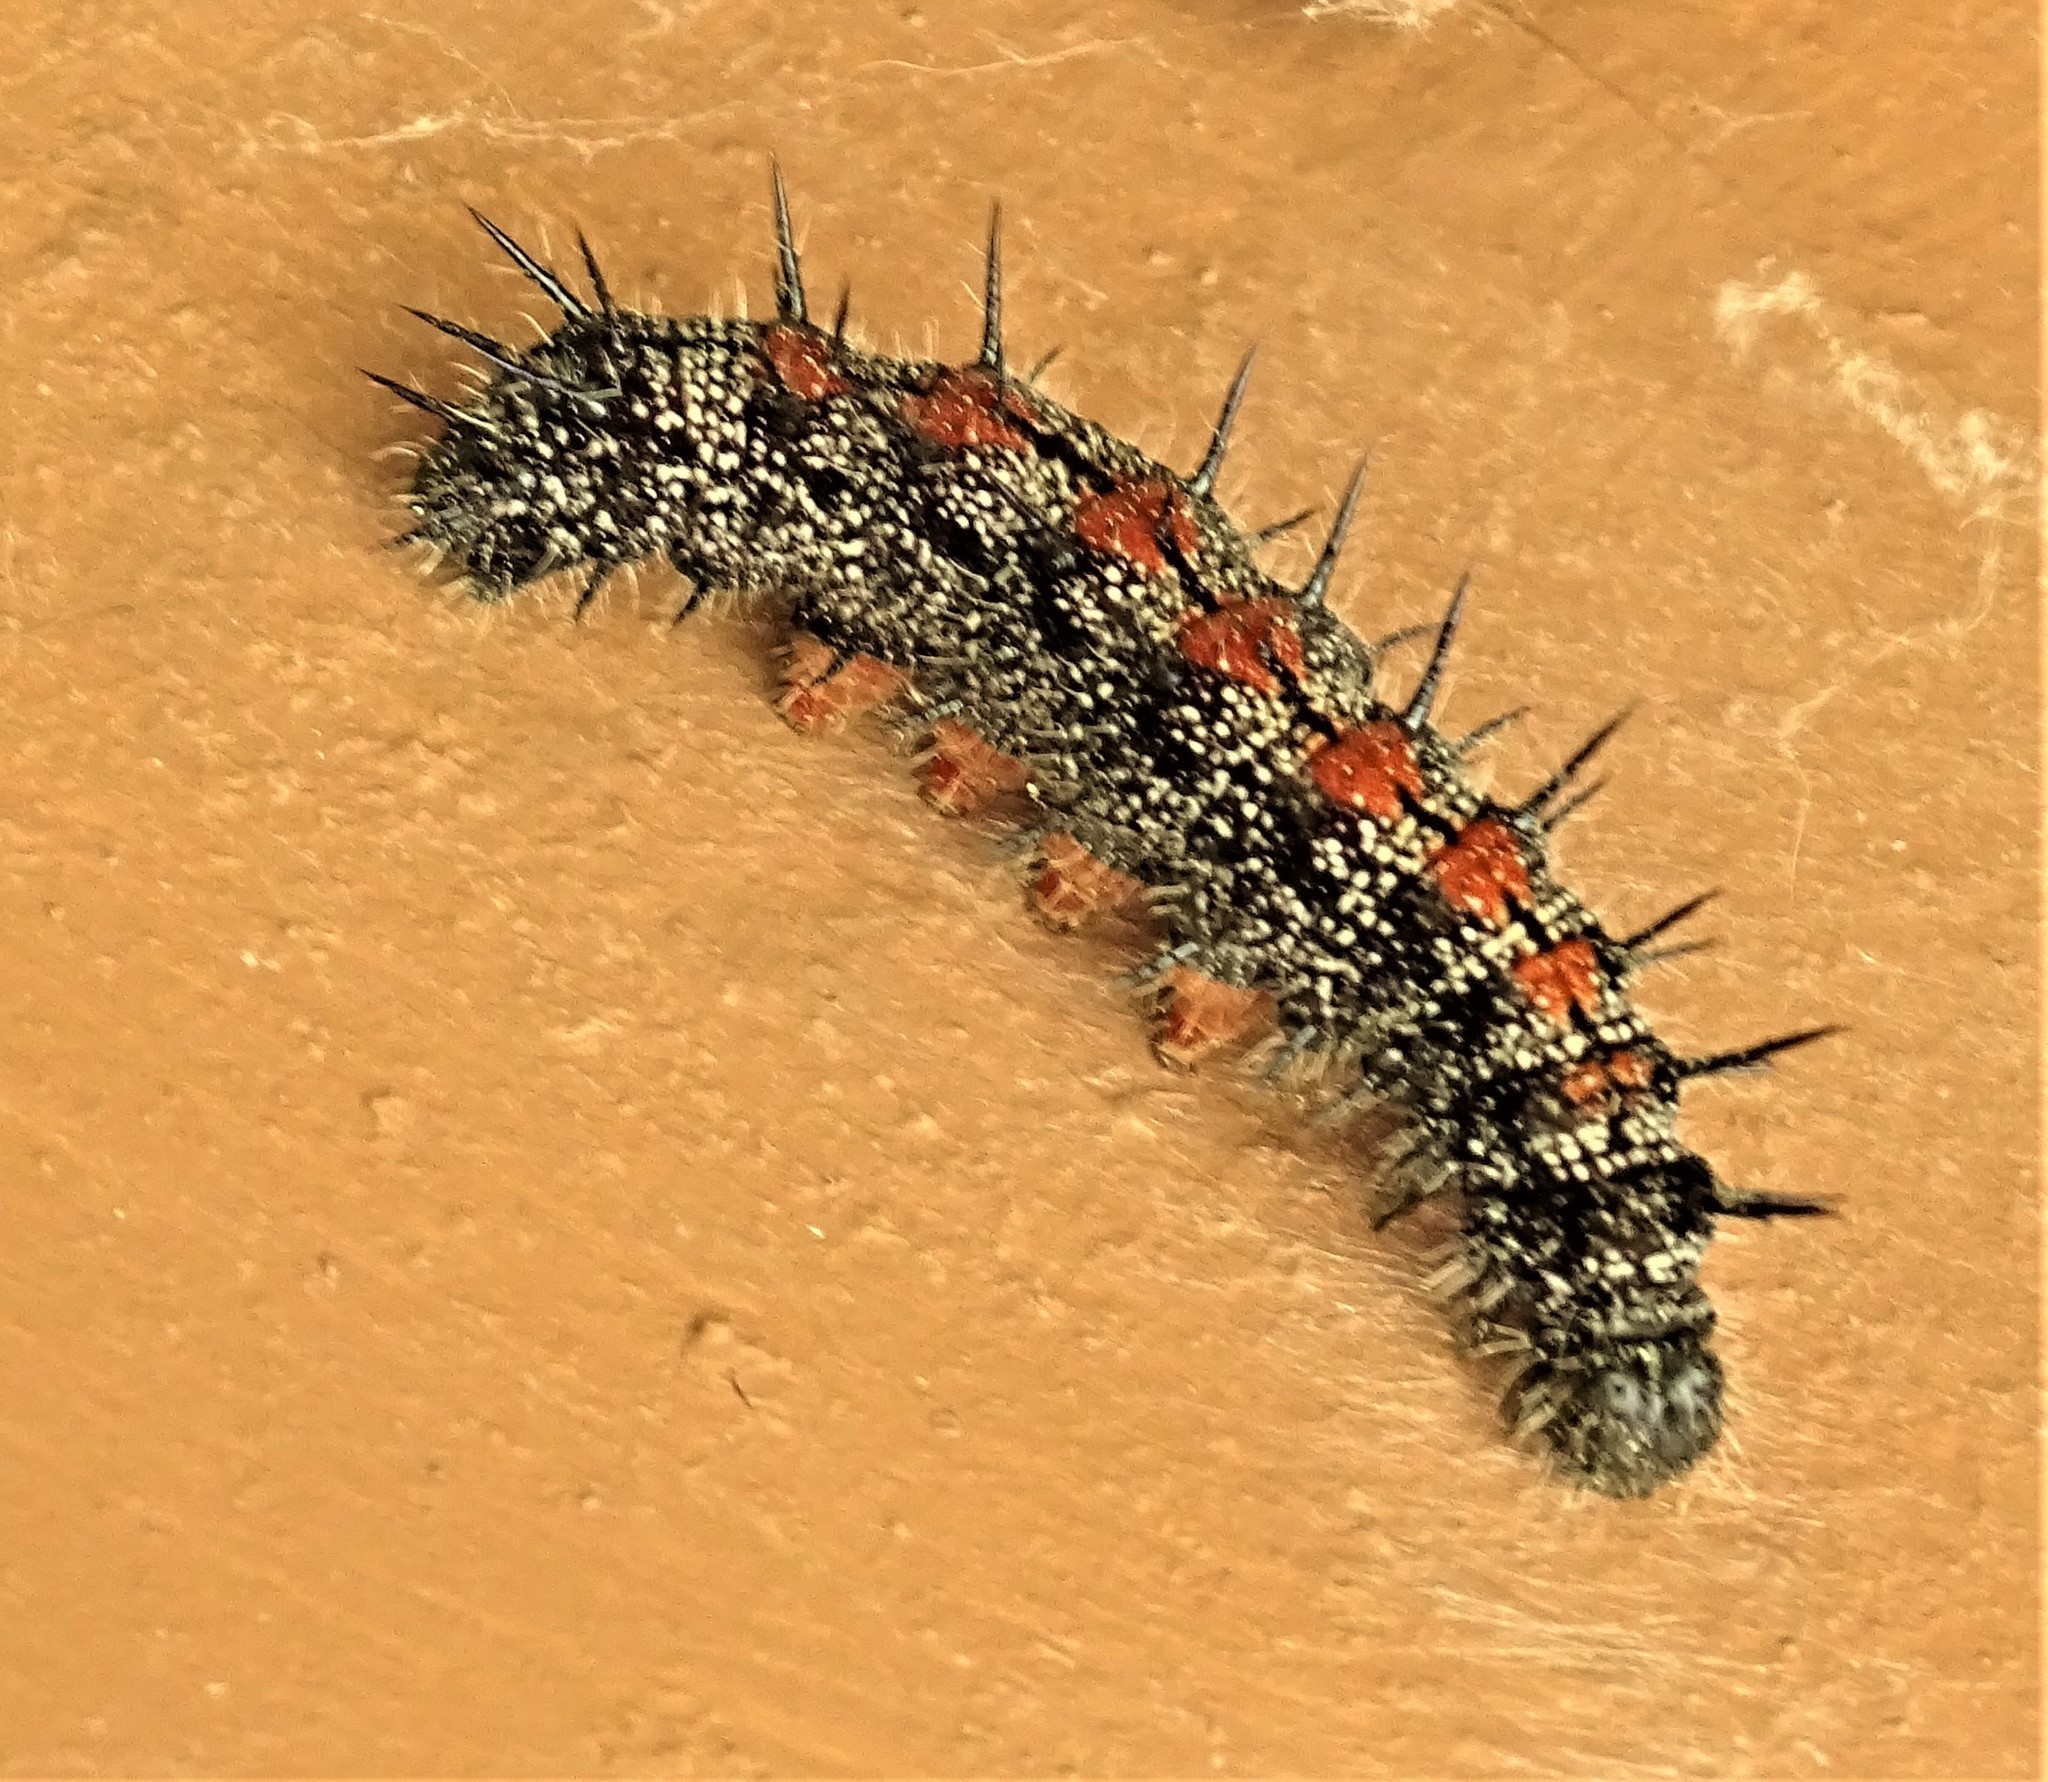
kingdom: Animalia
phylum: Arthropoda
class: Insecta
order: Lepidoptera
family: Nymphalidae
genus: Nymphalis
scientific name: Nymphalis antiopa
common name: Camberwell beauty
